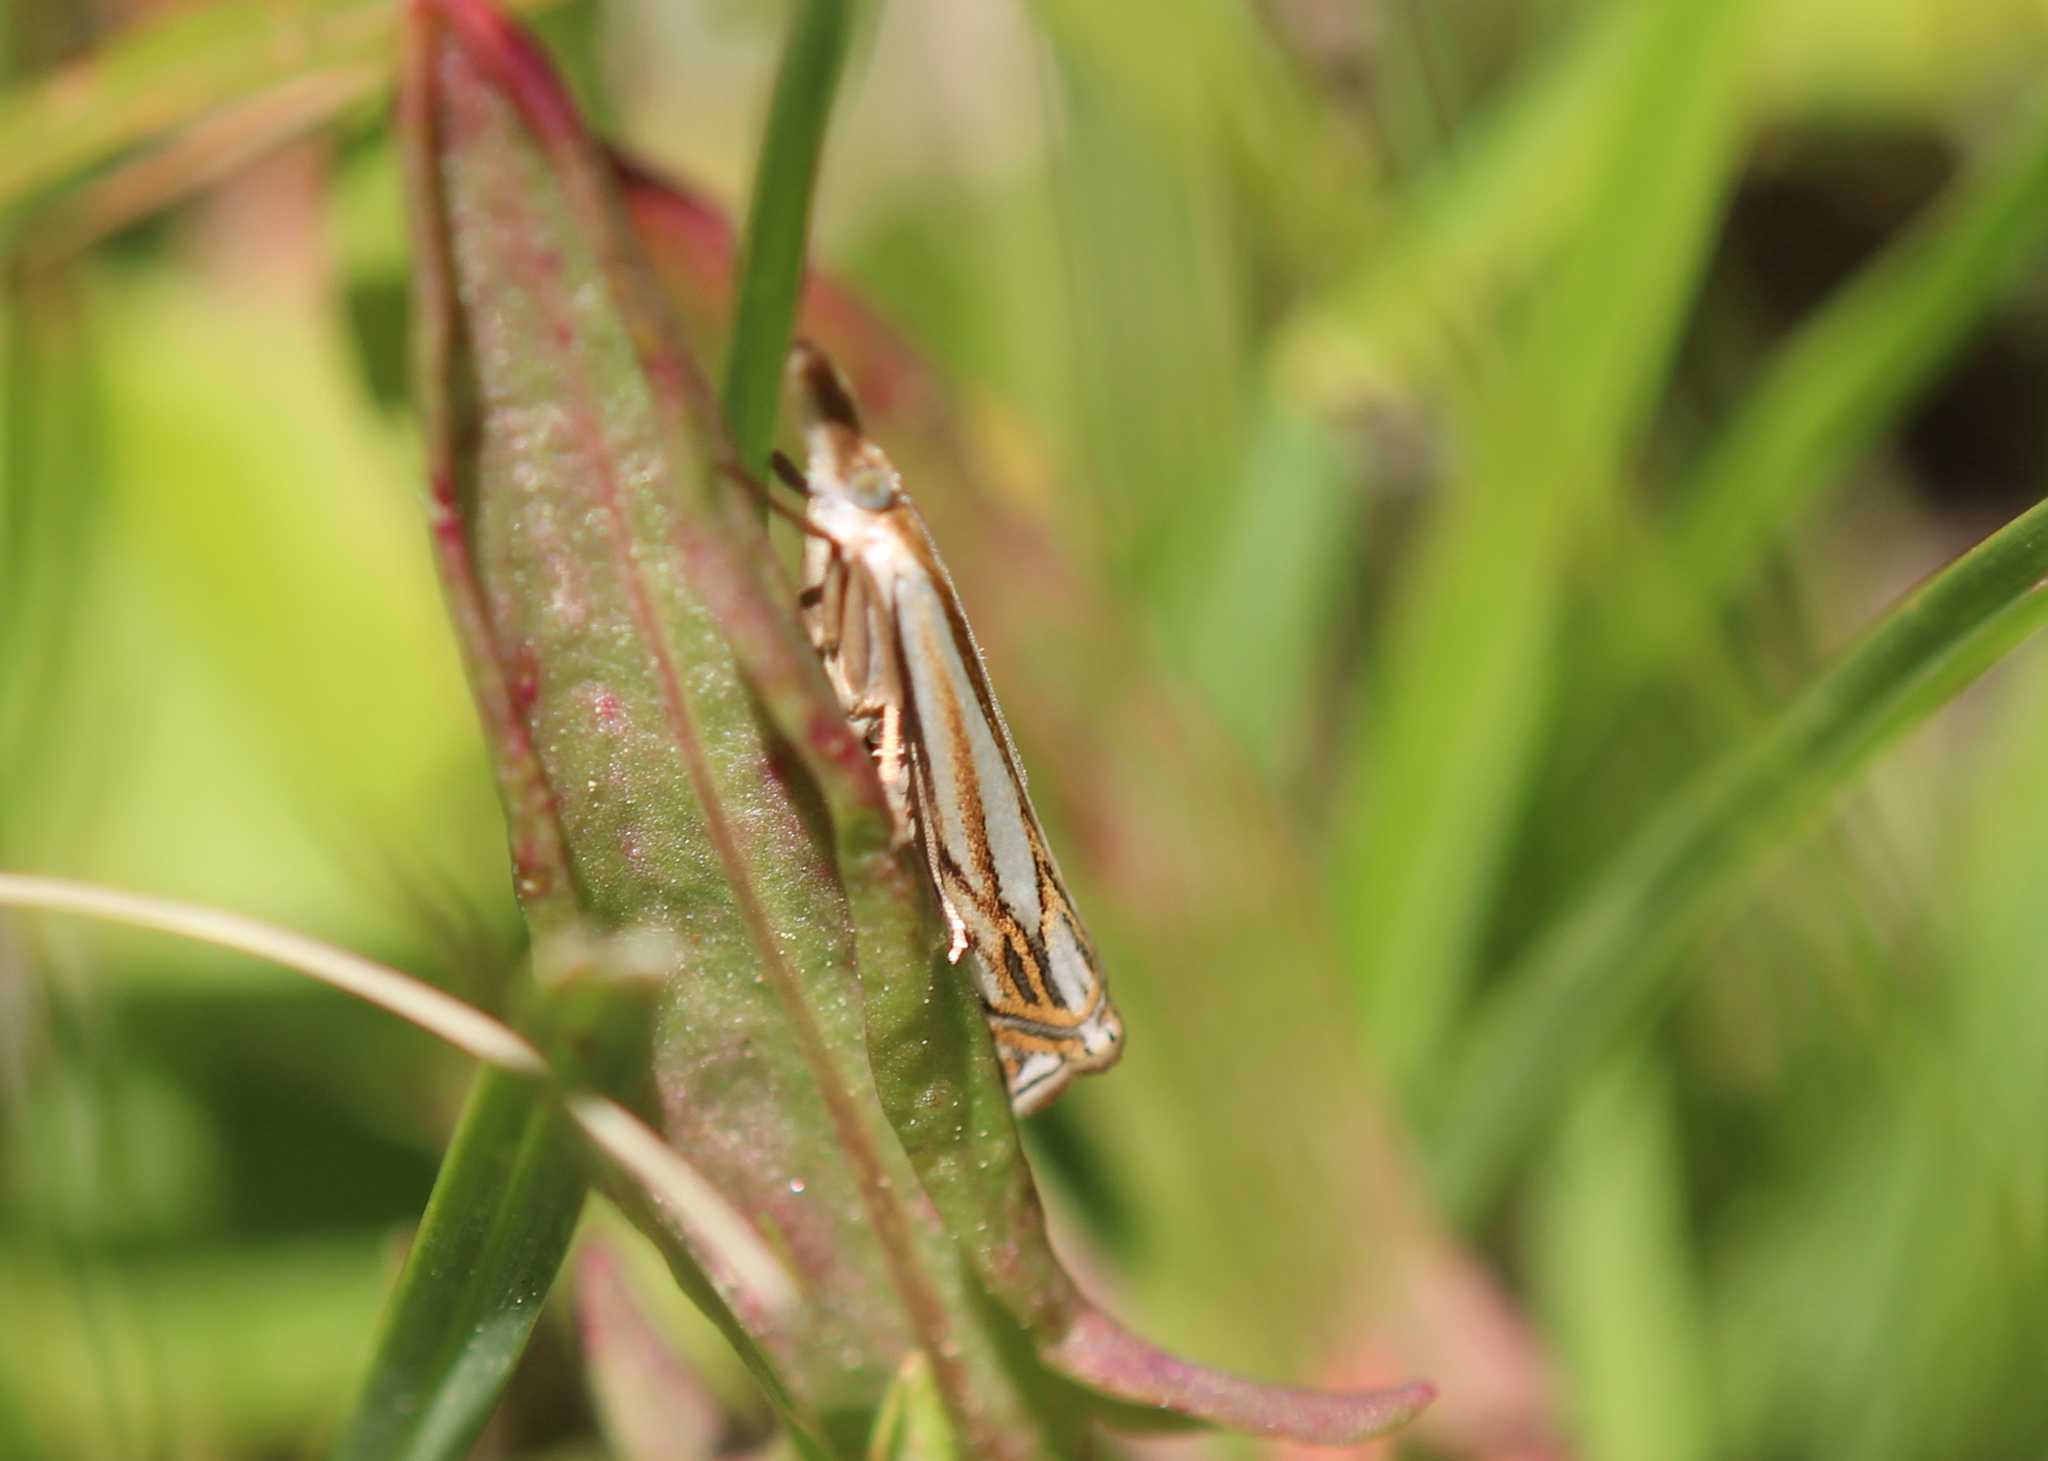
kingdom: Animalia
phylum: Arthropoda
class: Insecta
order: Lepidoptera
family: Crambidae
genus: Crambus
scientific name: Crambus saltuellus
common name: Pasture grass-veneer
